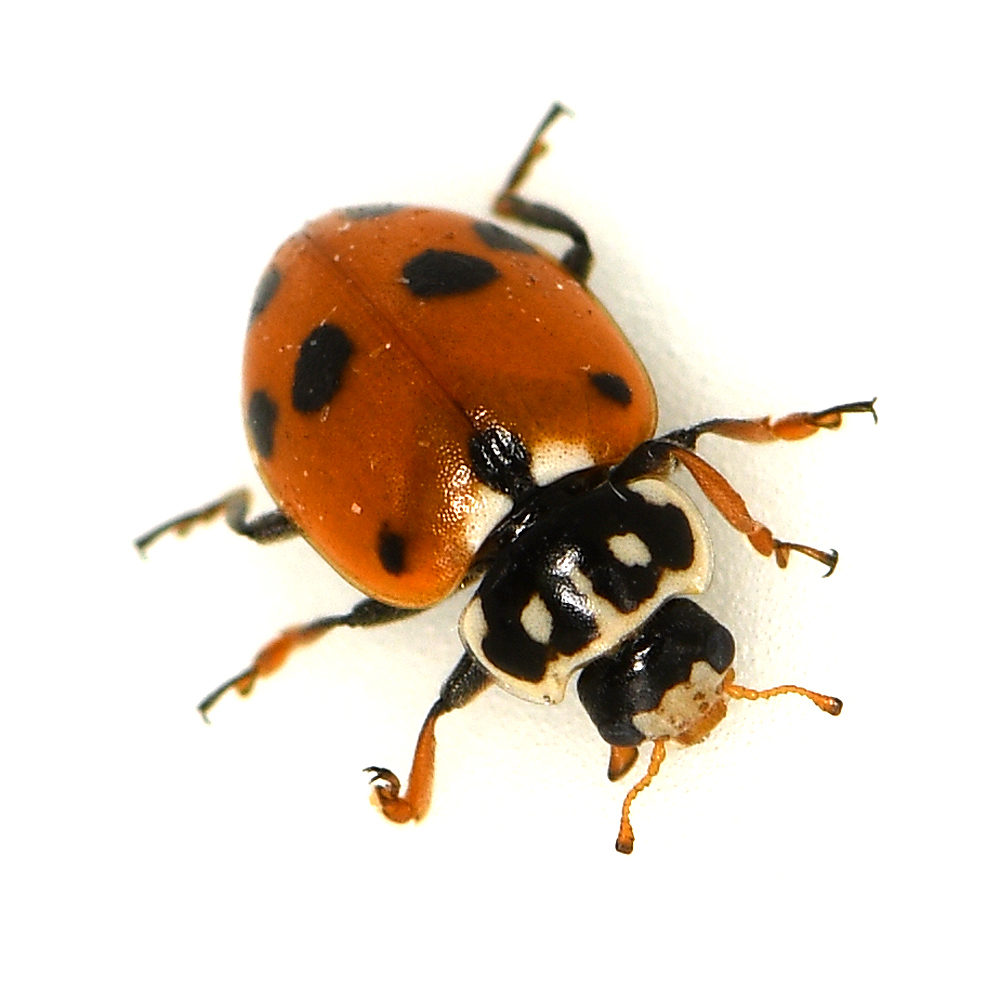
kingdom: Animalia
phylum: Arthropoda
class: Insecta
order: Coleoptera
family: Coccinellidae
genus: Hippodamia
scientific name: Hippodamia variegata
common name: Ladybird beetle
